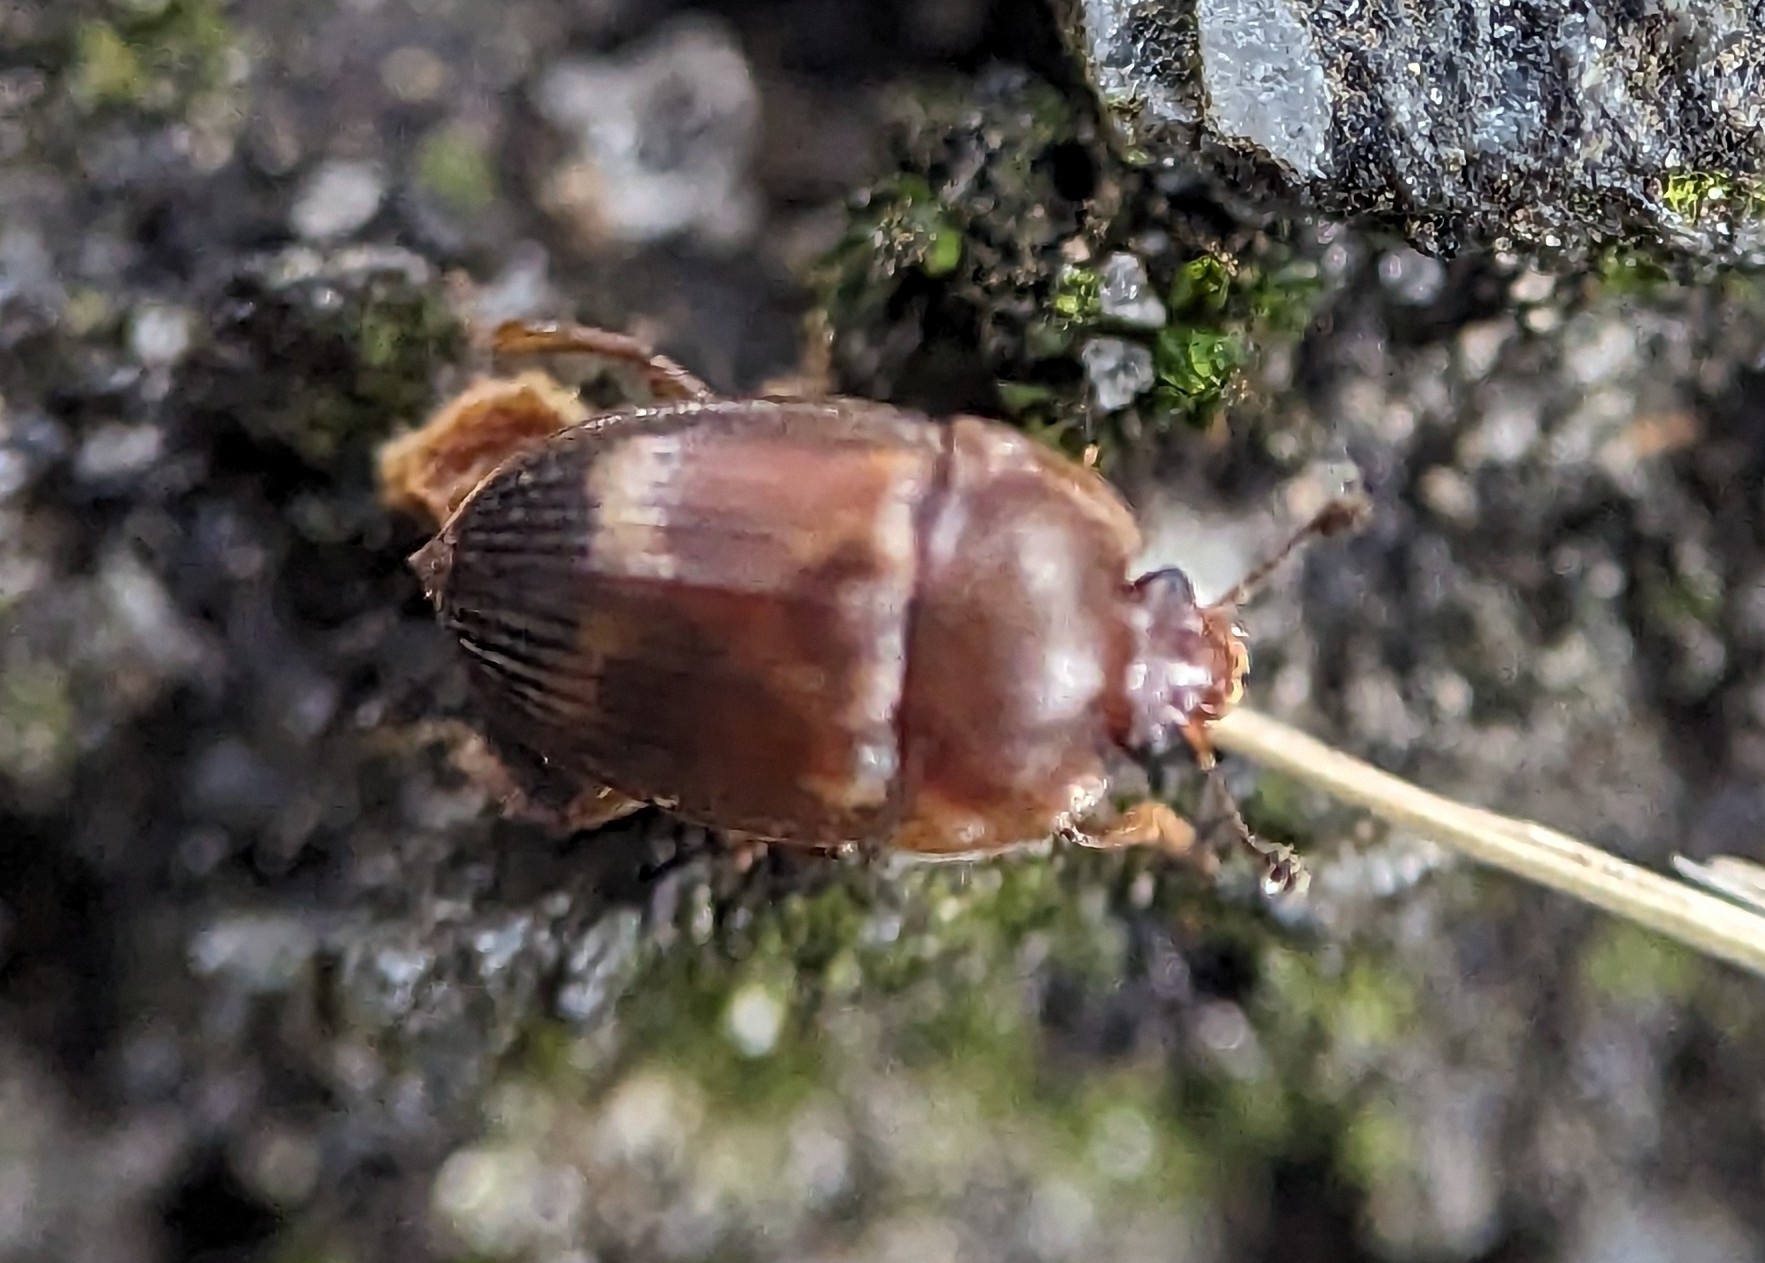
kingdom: Animalia
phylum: Arthropoda
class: Insecta
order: Coleoptera
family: Nitidulidae
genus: Stelidota
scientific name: Stelidota geminata
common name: Strawberry sap beetle
